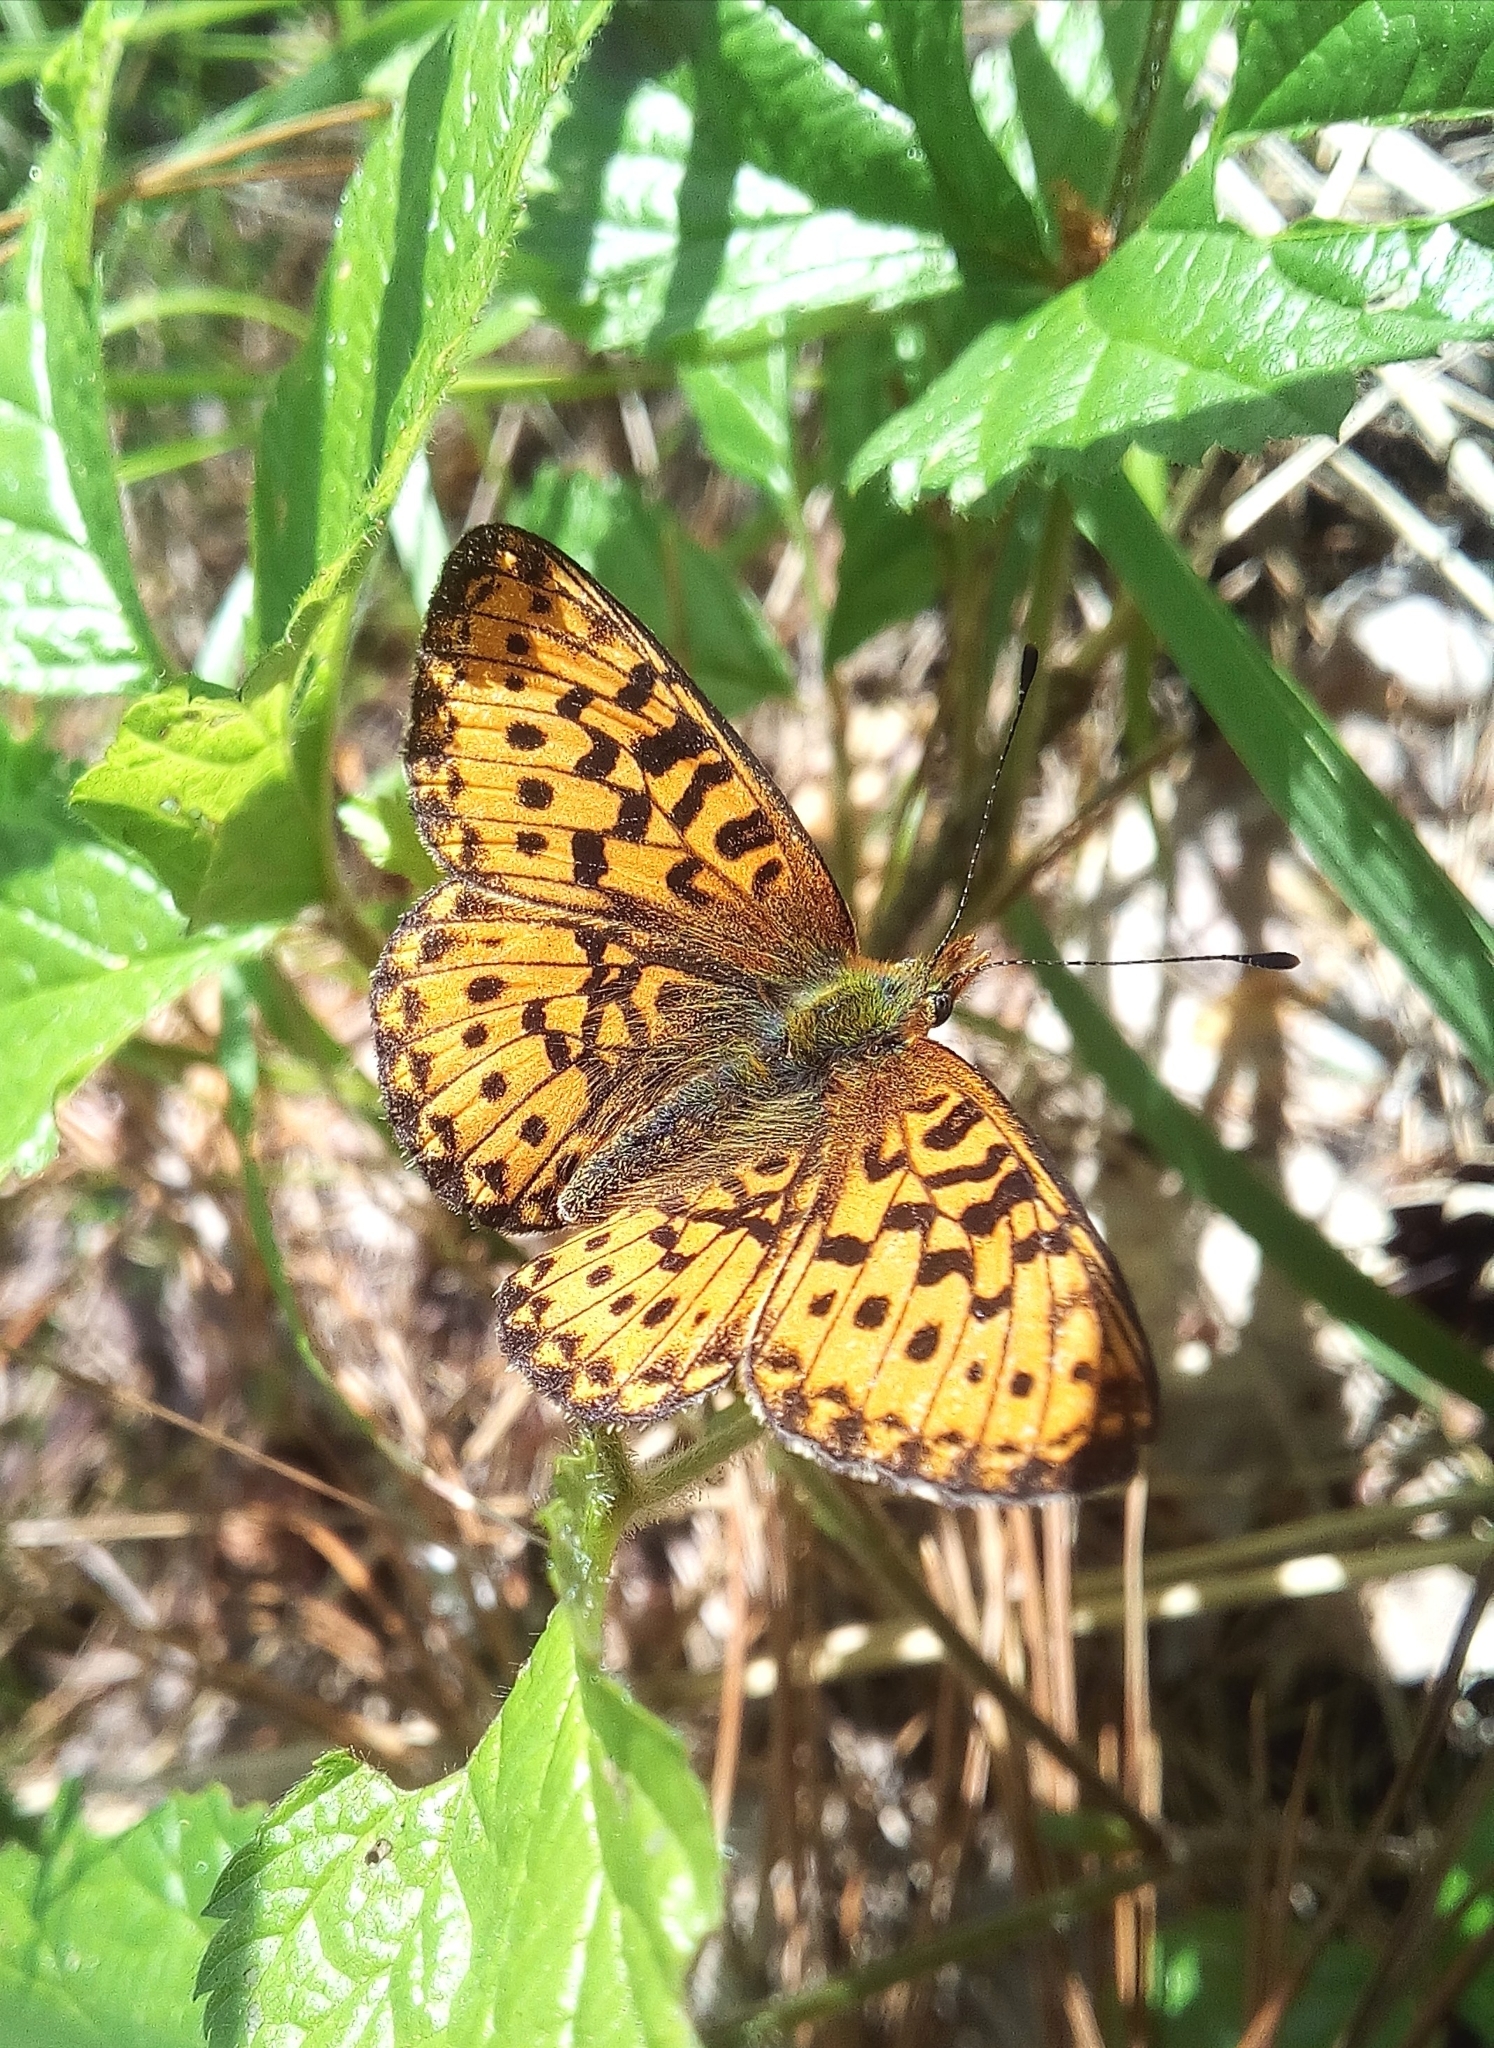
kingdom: Animalia
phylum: Arthropoda
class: Insecta
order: Lepidoptera
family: Nymphalidae
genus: Clossiana
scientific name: Clossiana euphrosyne
